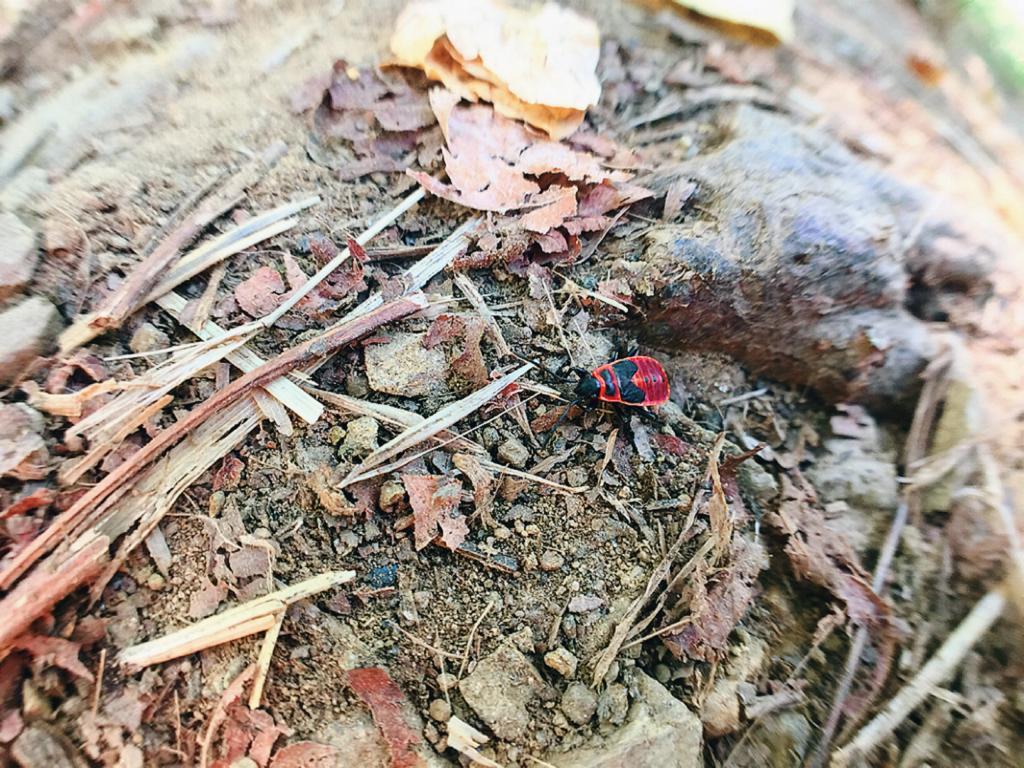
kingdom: Animalia
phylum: Arthropoda
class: Insecta
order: Hemiptera
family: Pyrrhocoridae
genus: Pyrrhocoris
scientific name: Pyrrhocoris apterus
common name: Firebug
